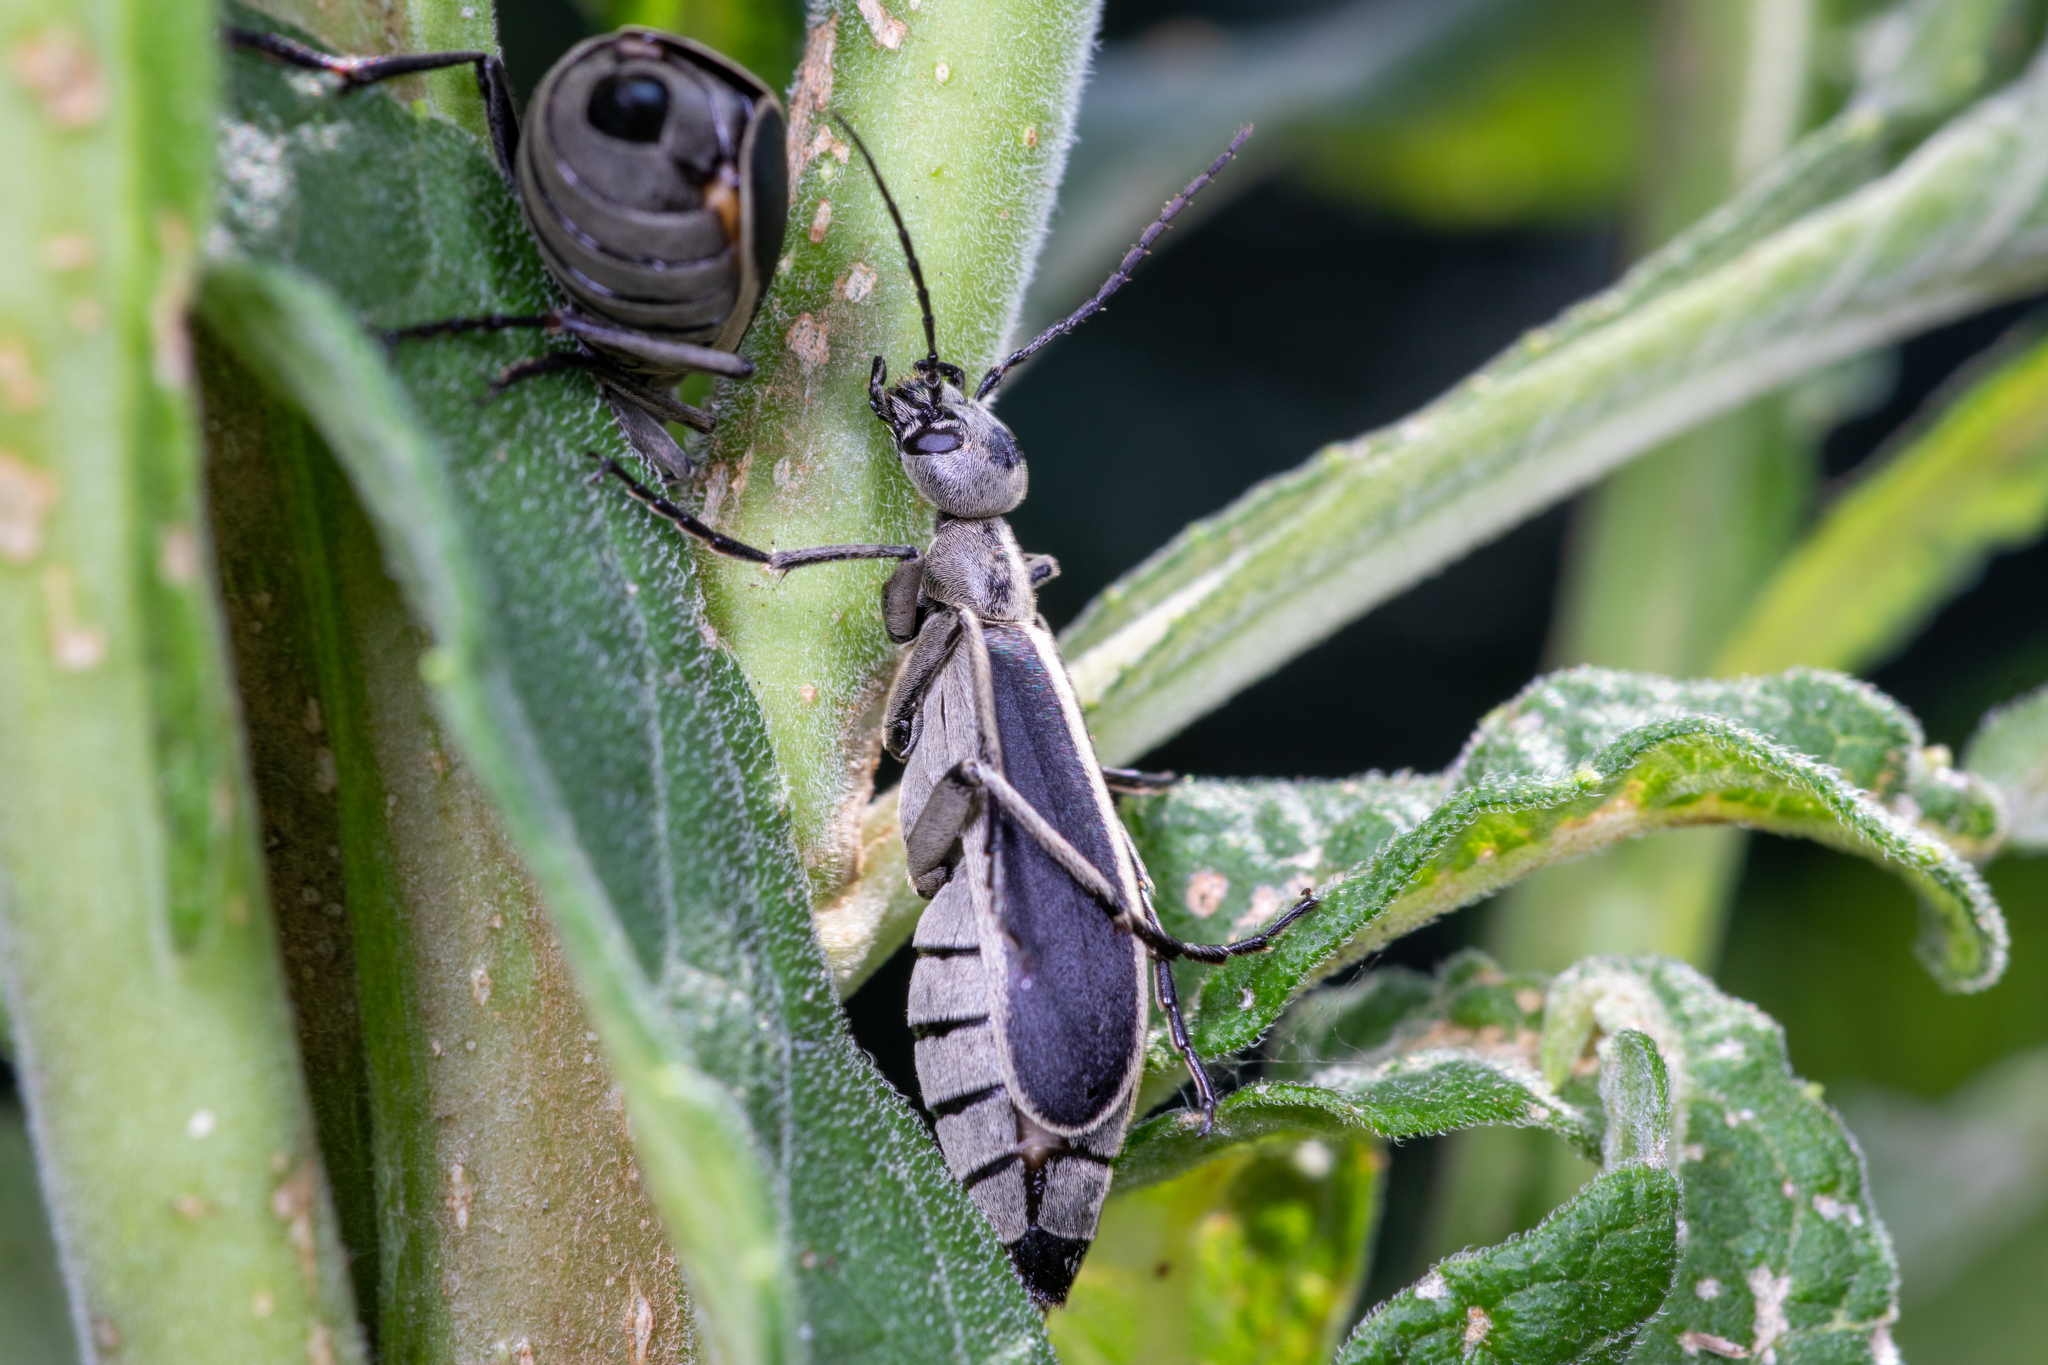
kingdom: Animalia
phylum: Arthropoda
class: Insecta
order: Coleoptera
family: Meloidae
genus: Epicauta
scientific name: Epicauta funebris
